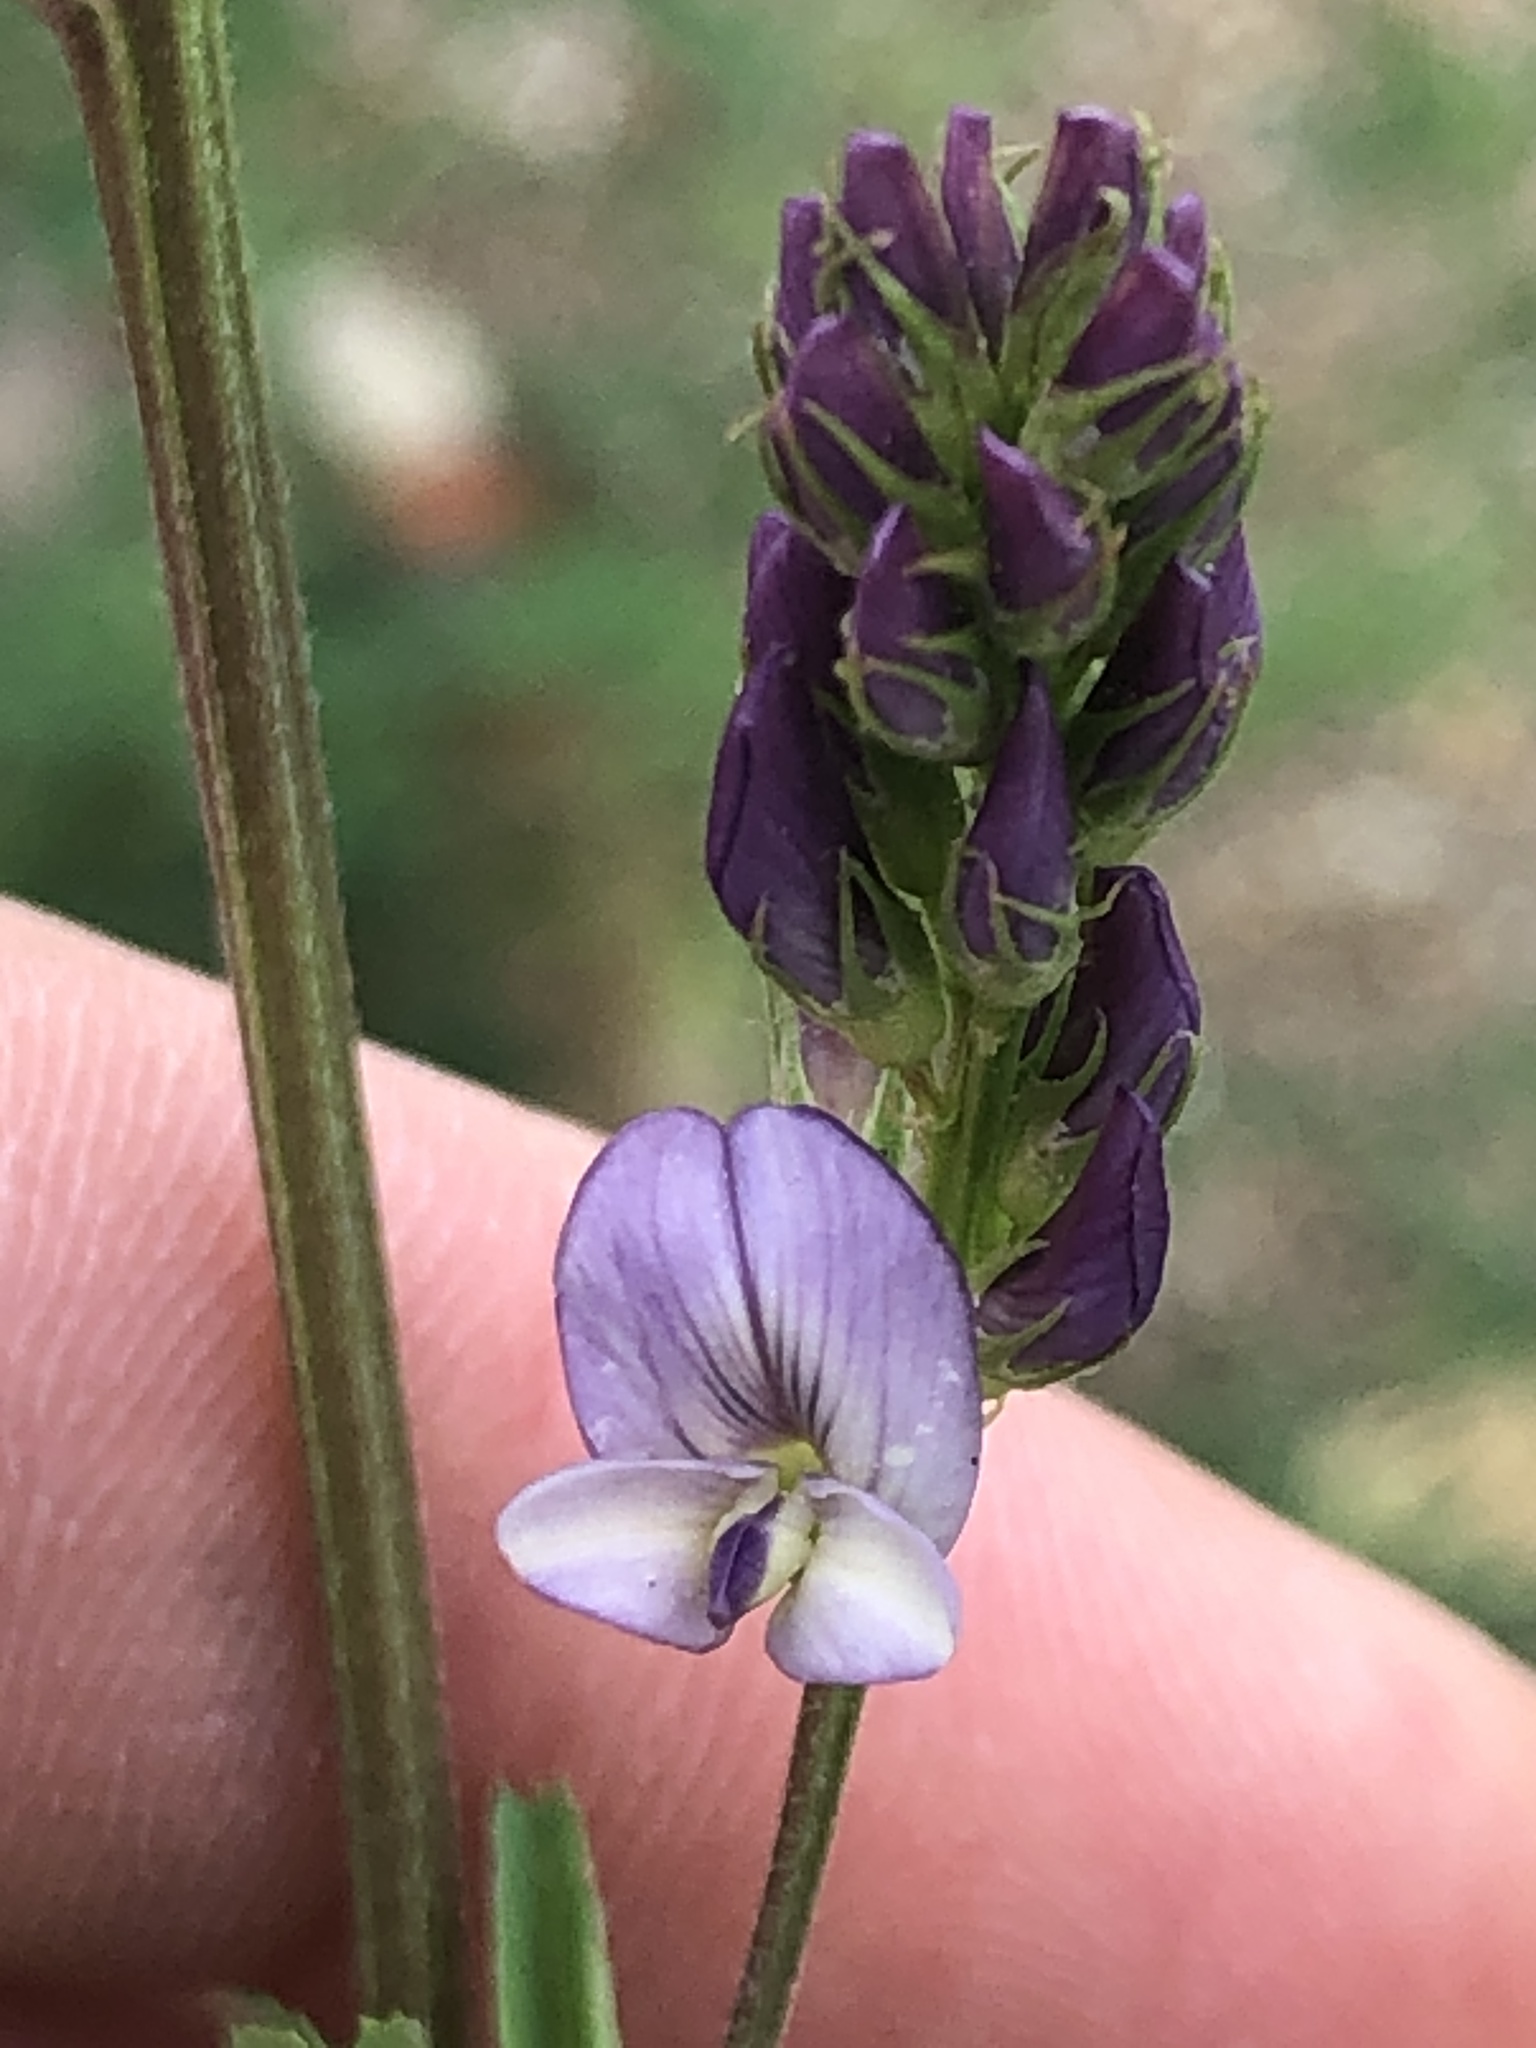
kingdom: Plantae
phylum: Tracheophyta
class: Magnoliopsida
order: Fabales
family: Fabaceae
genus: Medicago
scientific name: Medicago sativa
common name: Alfalfa
